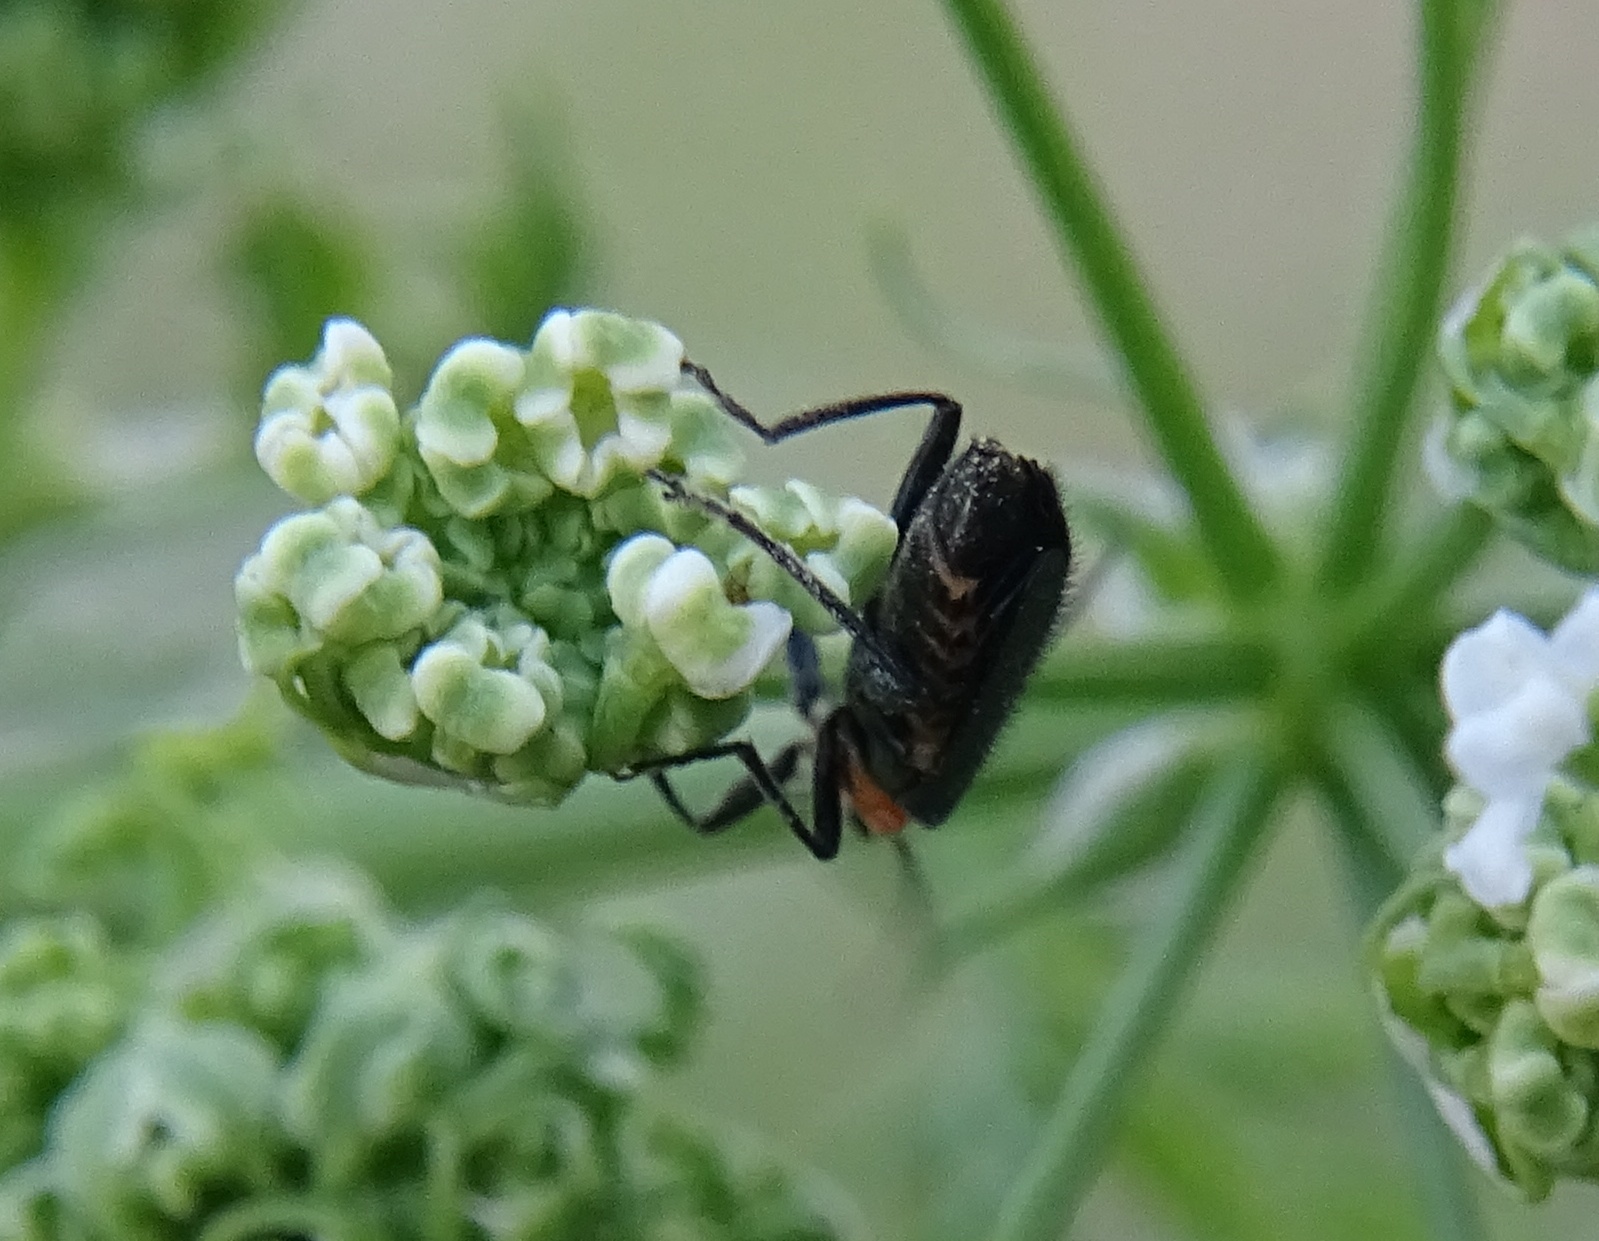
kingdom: Animalia
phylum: Arthropoda
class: Insecta
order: Coleoptera
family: Cantharidae
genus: Cultellunguis
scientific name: Cultellunguis ingenuus
